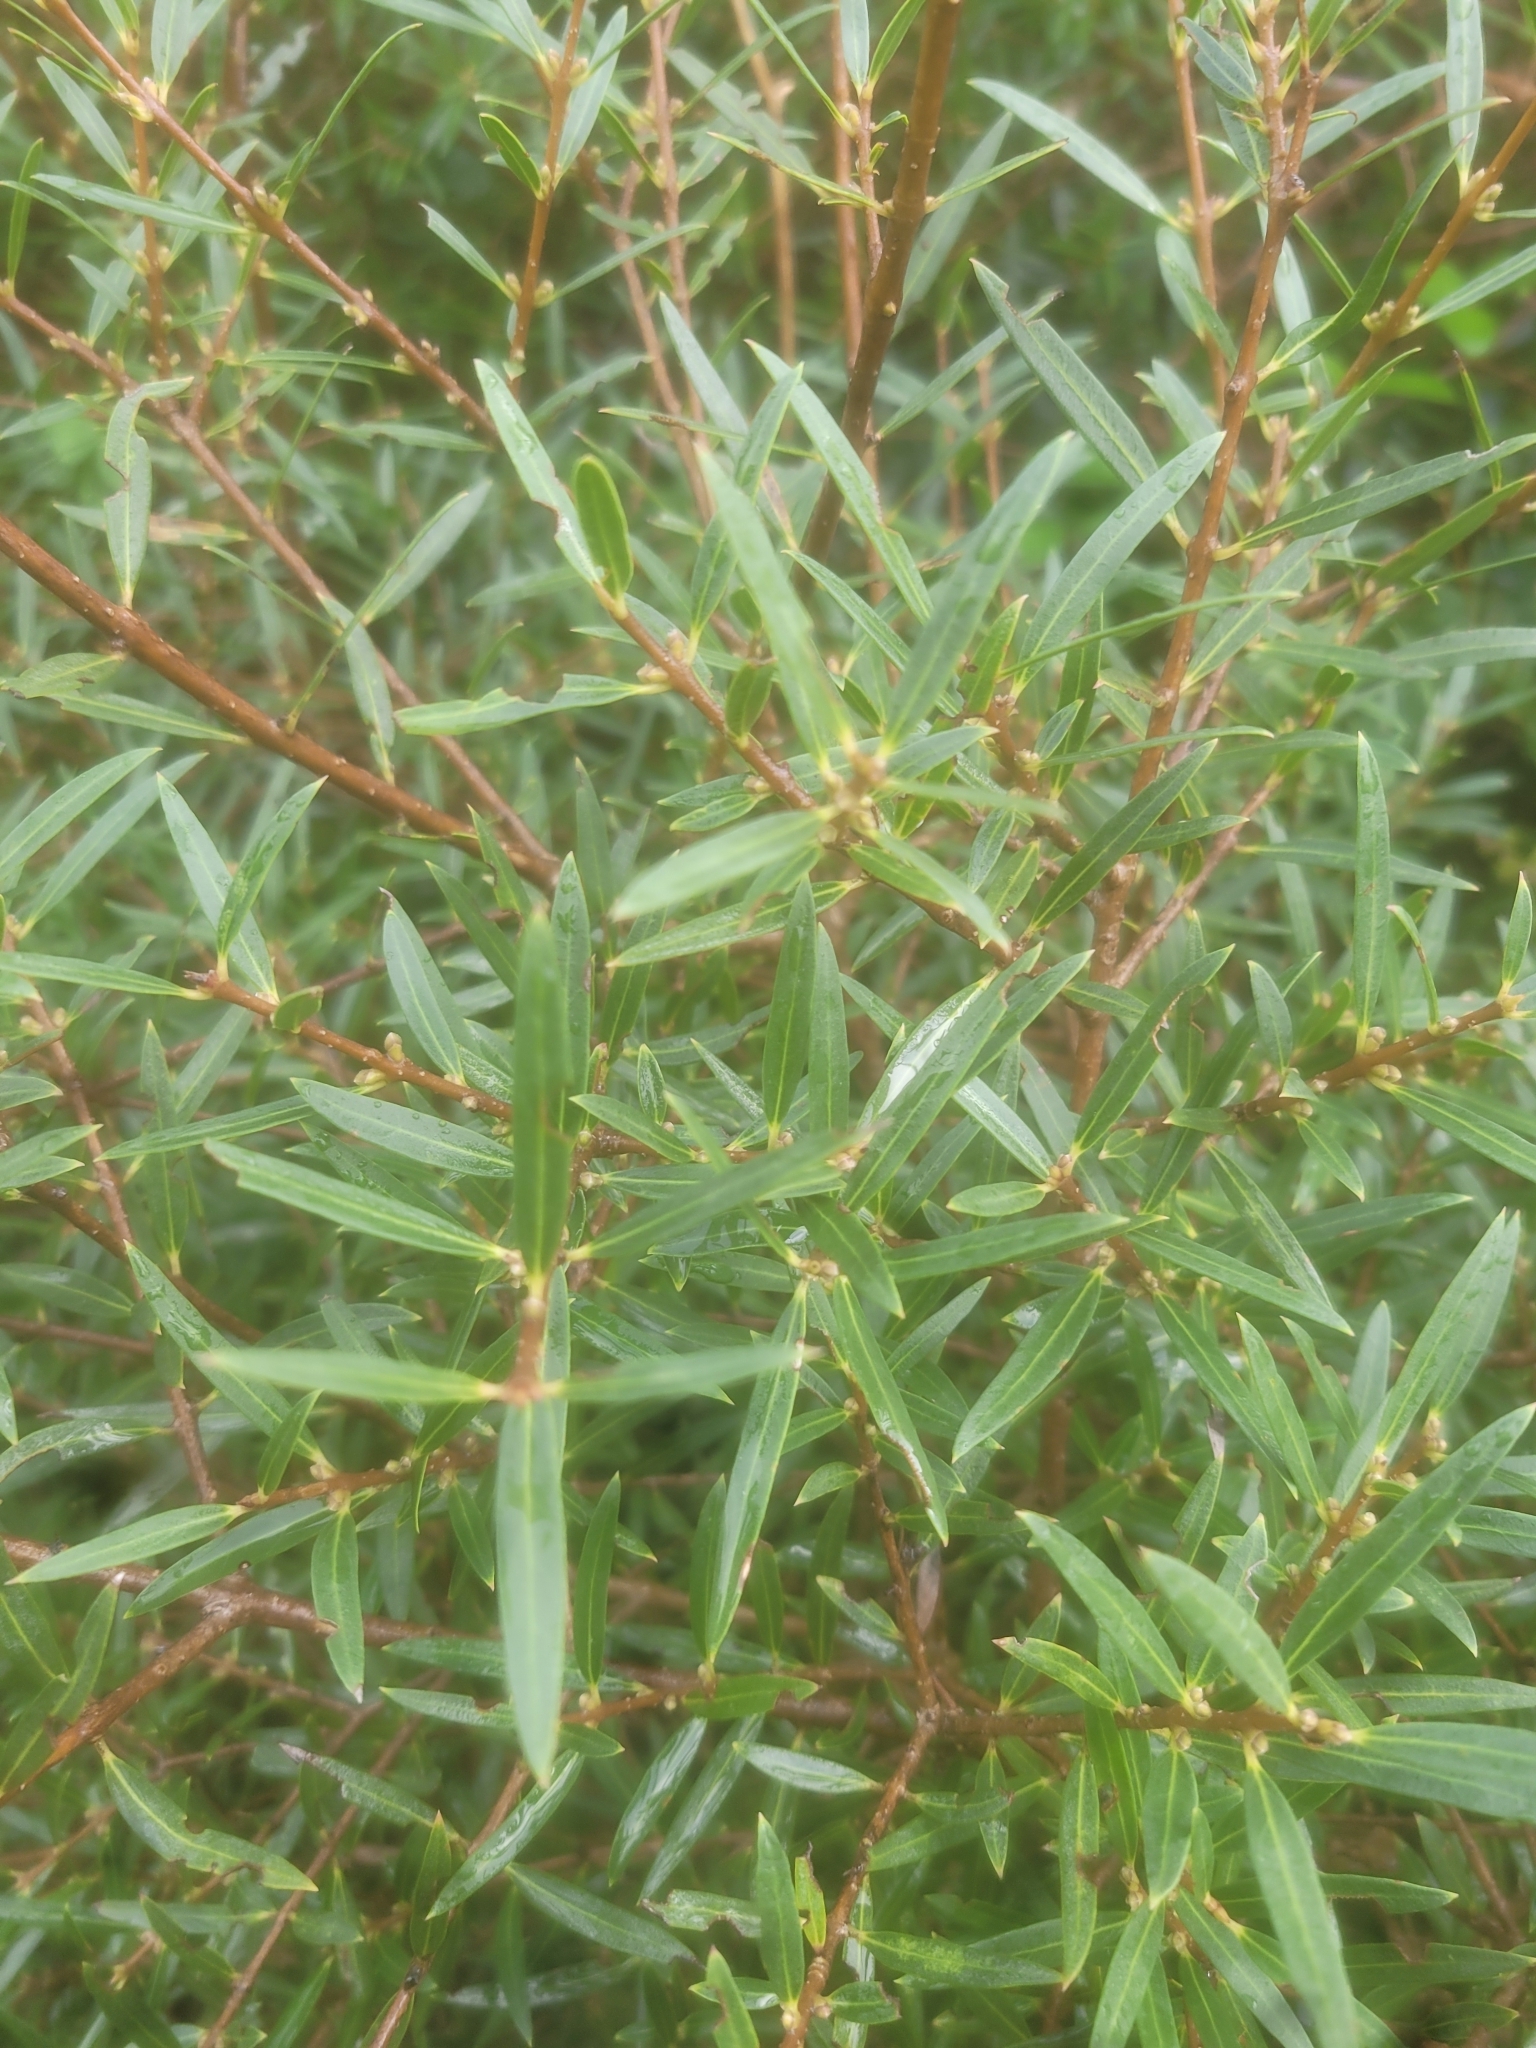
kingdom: Plantae
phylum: Tracheophyta
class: Magnoliopsida
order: Lamiales
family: Oleaceae
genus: Phillyrea
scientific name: Phillyrea angustifolia
